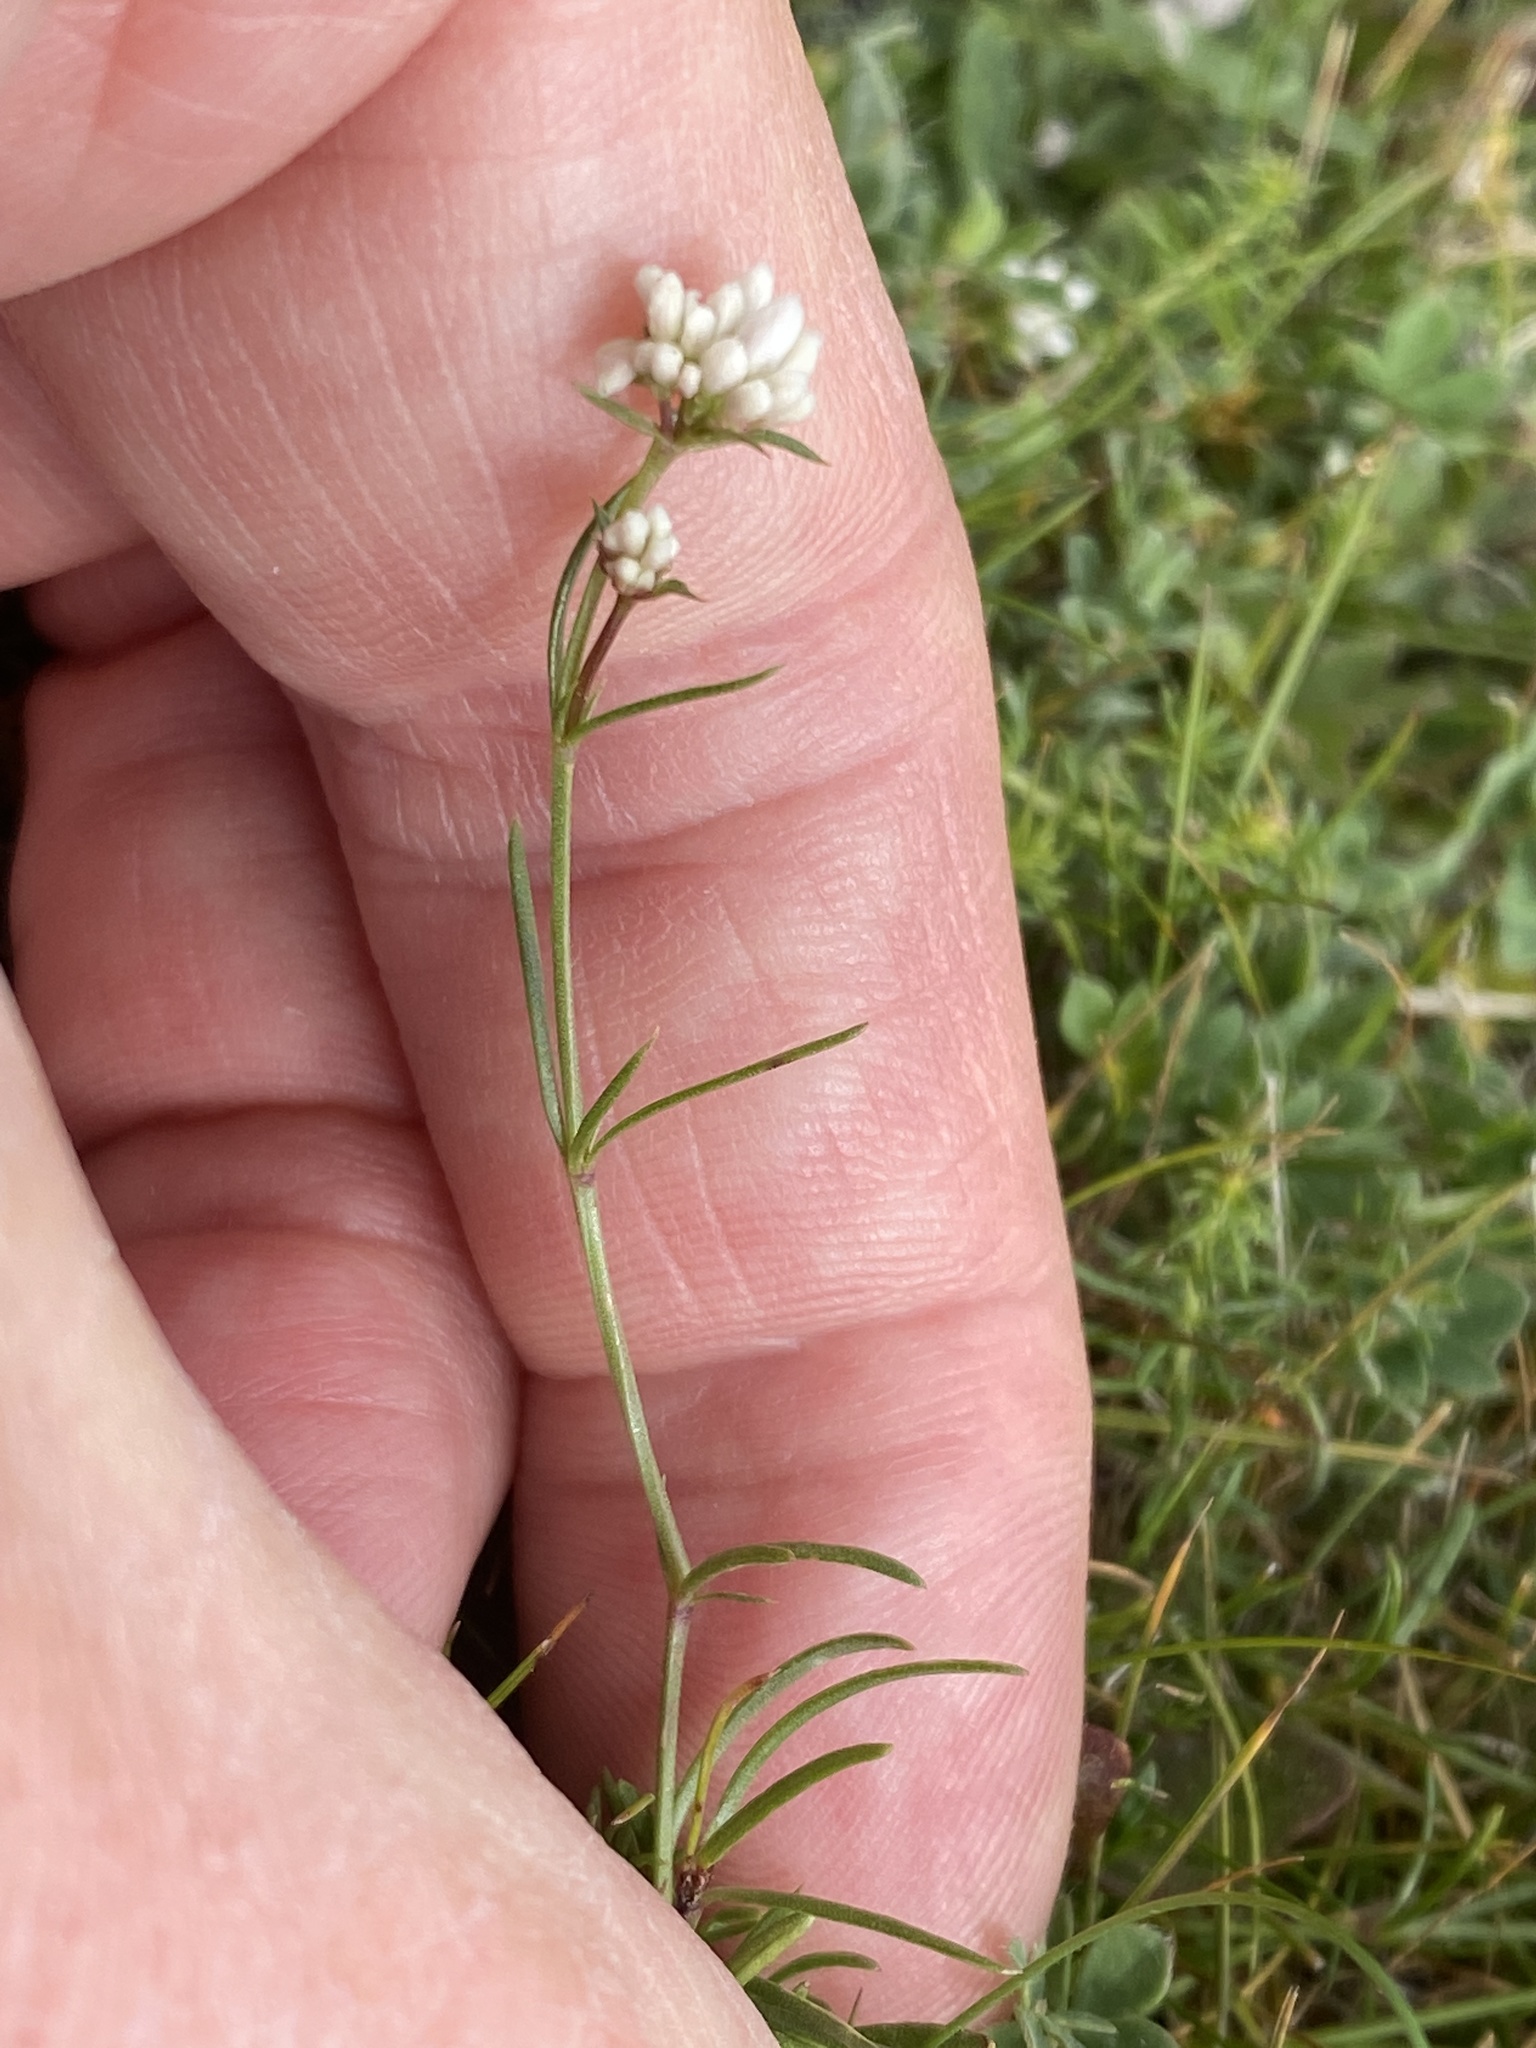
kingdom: Plantae
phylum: Tracheophyta
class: Magnoliopsida
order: Gentianales
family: Rubiaceae
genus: Cynanchica
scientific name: Cynanchica pyrenaica
